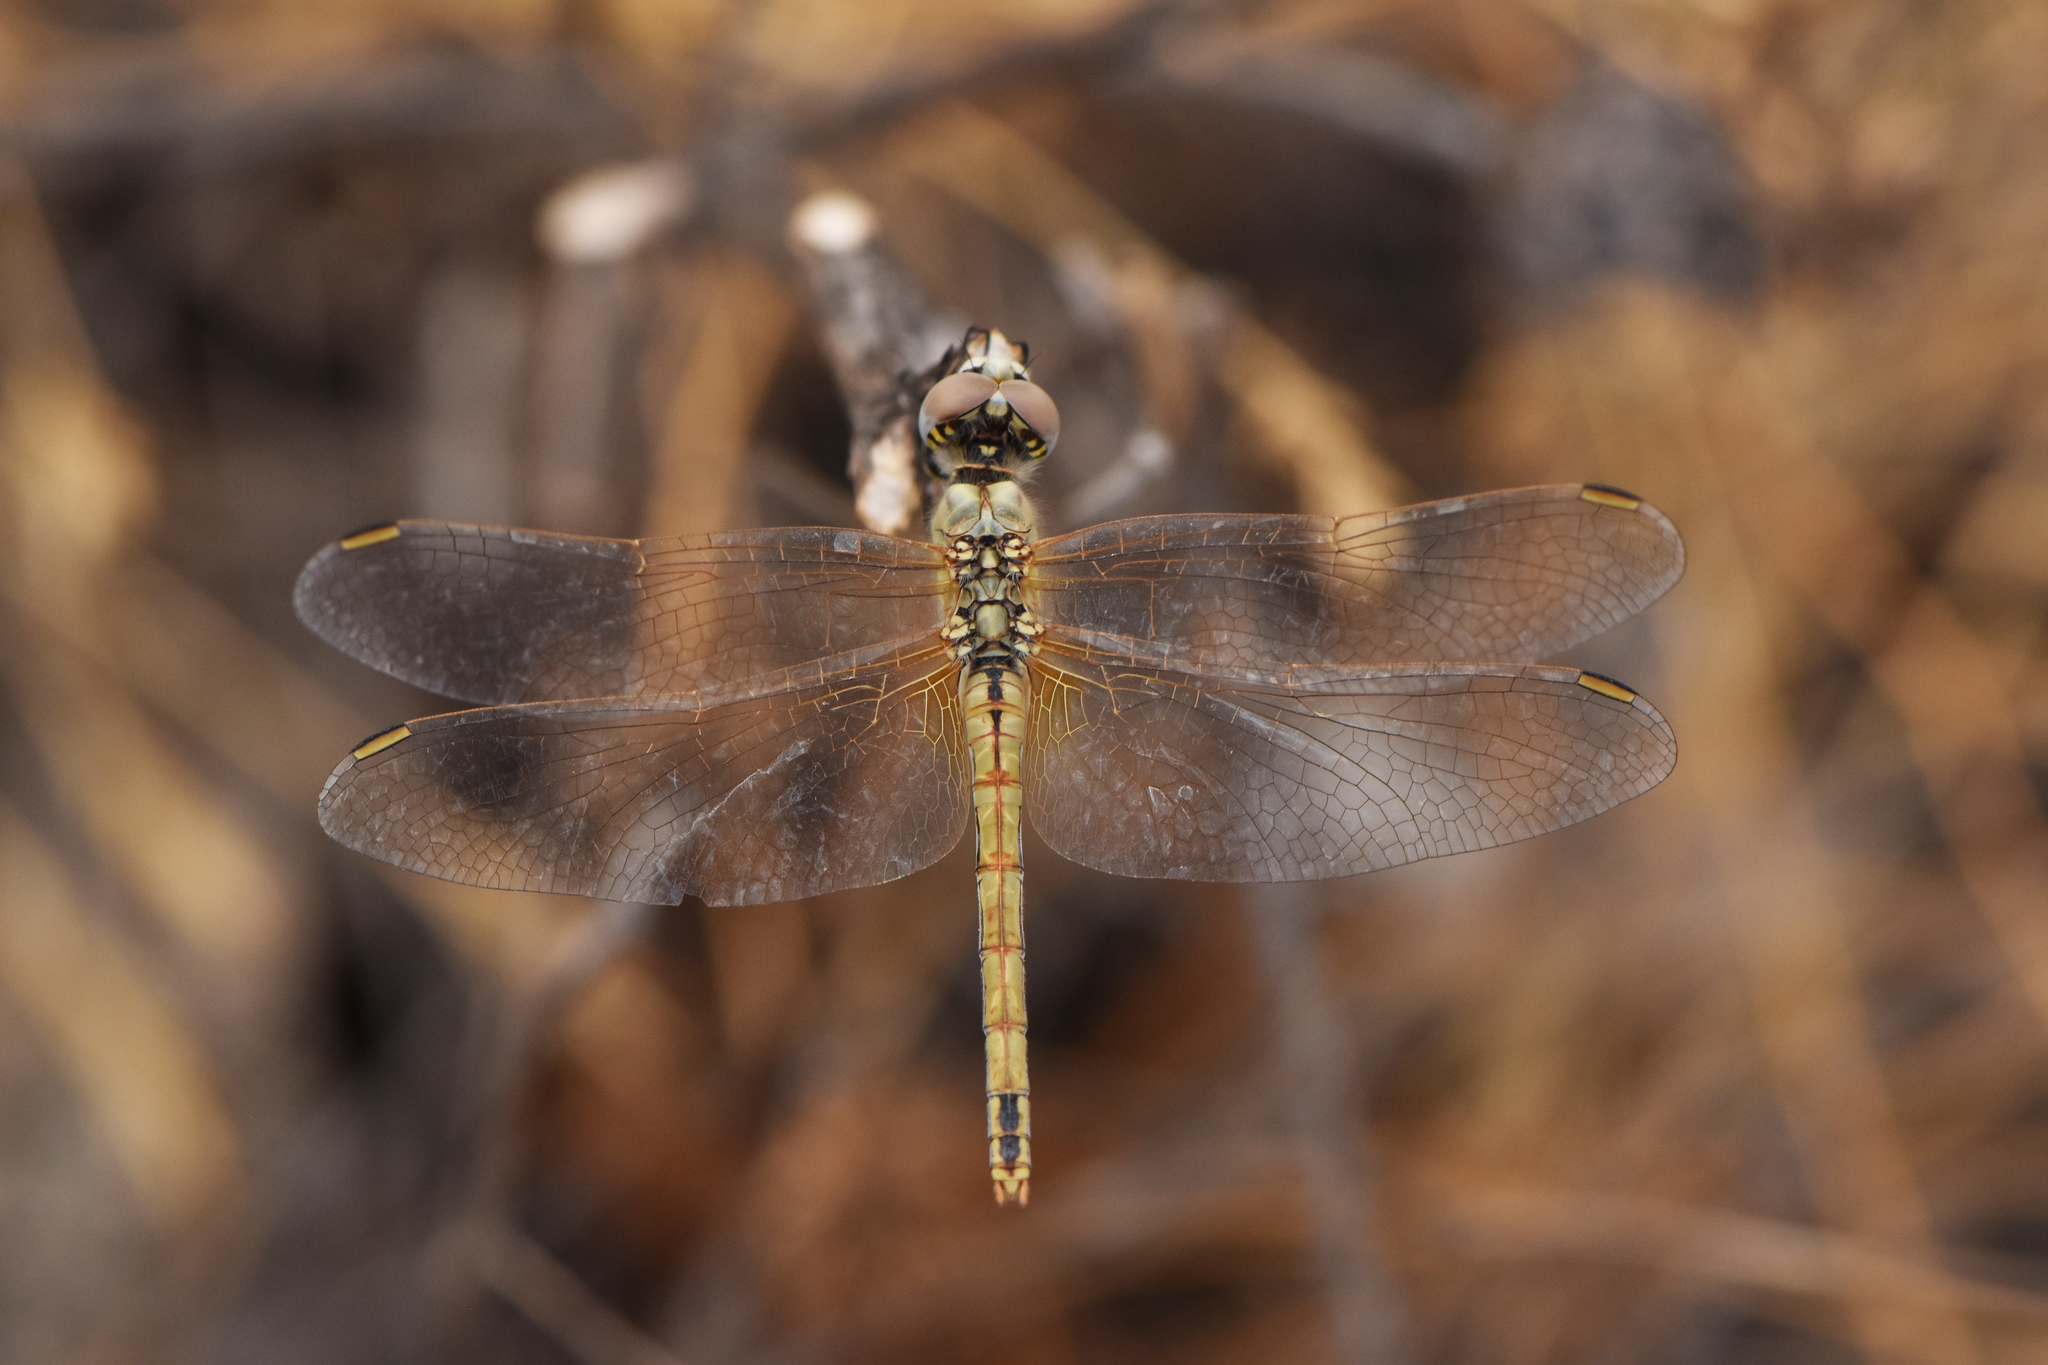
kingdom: Animalia
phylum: Arthropoda
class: Insecta
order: Odonata
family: Libellulidae
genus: Sympetrum
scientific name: Sympetrum fonscolombii
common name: Red-veined darter
